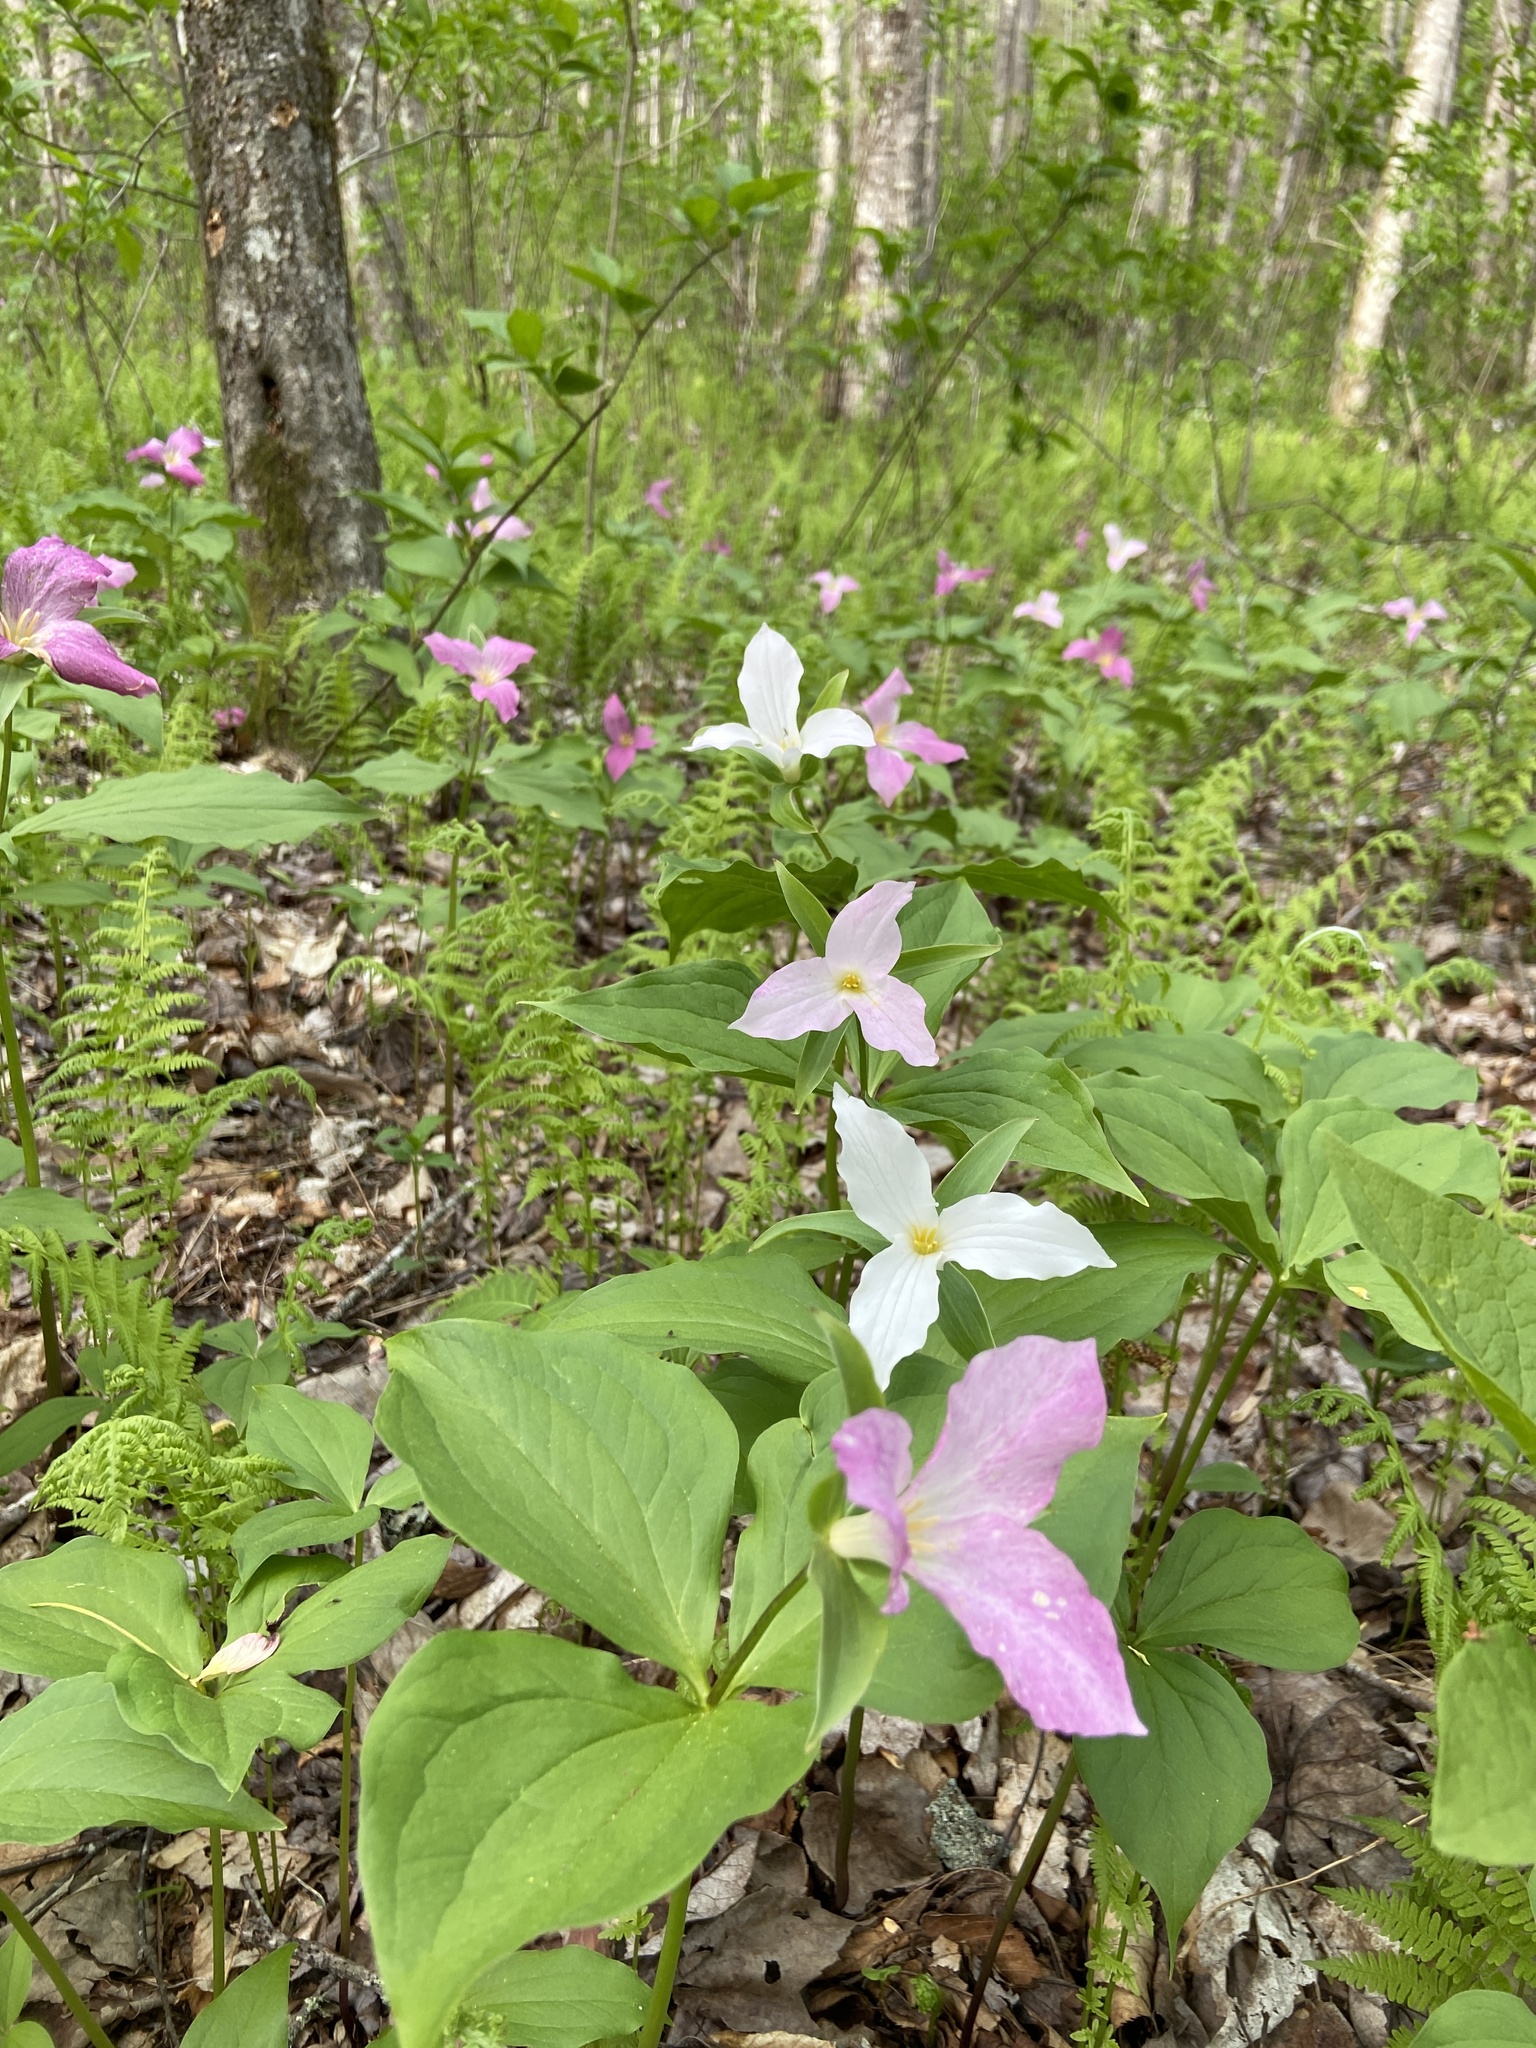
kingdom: Plantae
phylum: Tracheophyta
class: Liliopsida
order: Liliales
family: Melanthiaceae
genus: Trillium
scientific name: Trillium grandiflorum
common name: Great white trillium
